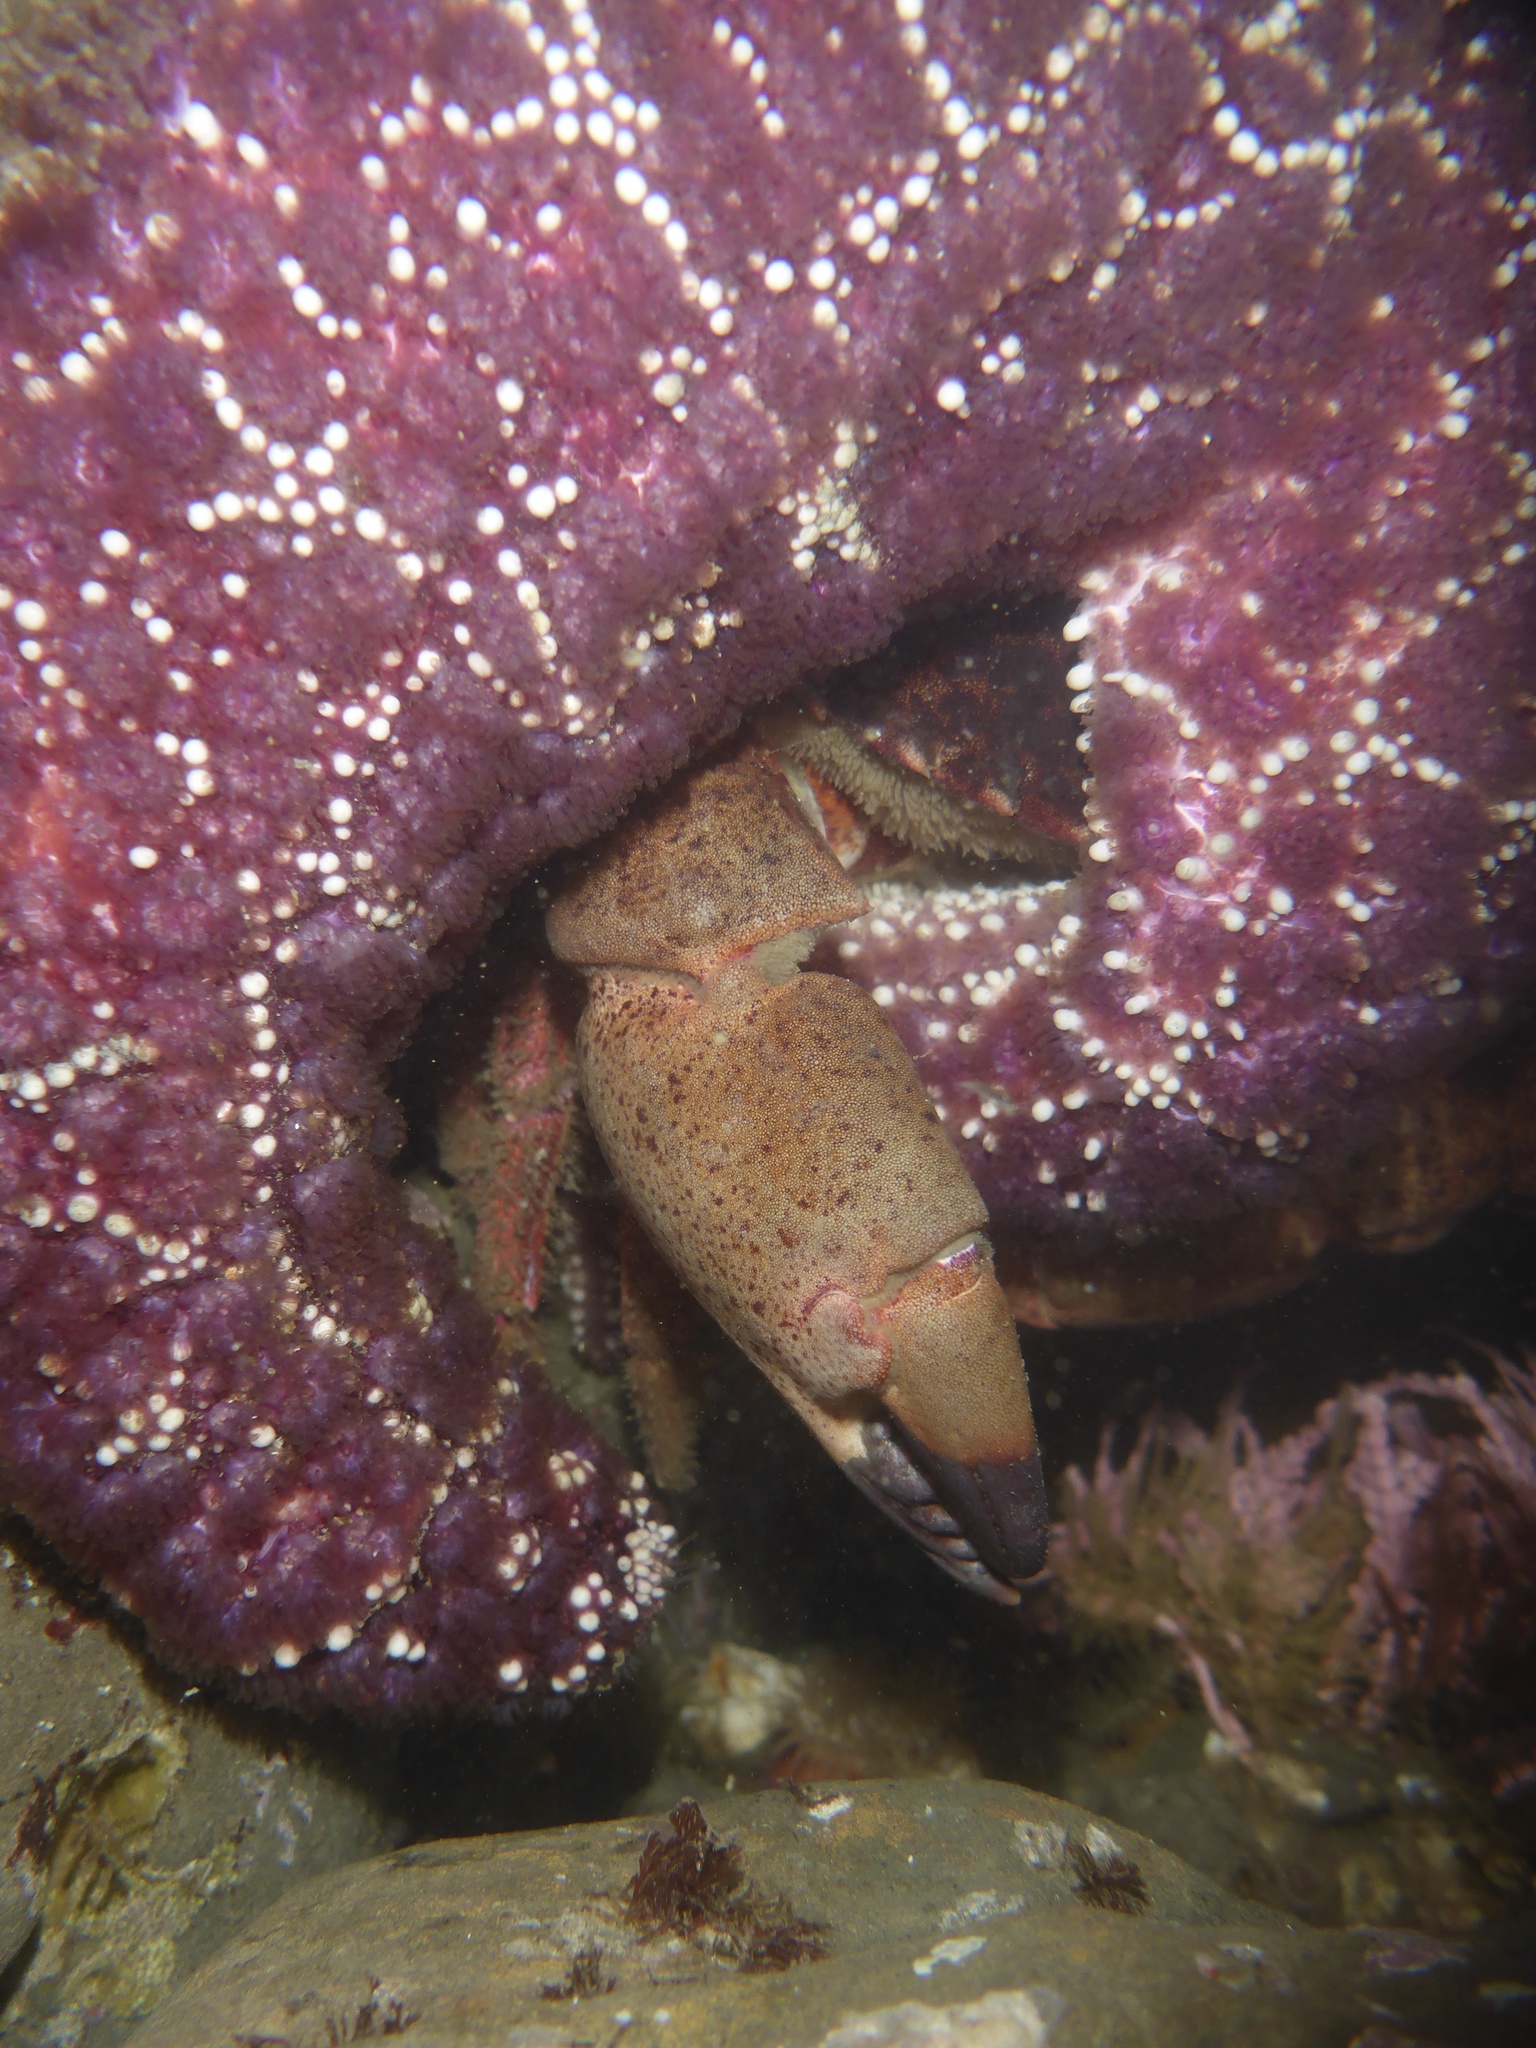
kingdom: Animalia
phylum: Echinodermata
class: Asteroidea
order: Forcipulatida
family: Asteriidae
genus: Pisaster
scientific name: Pisaster ochraceus
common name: Ochre stars
